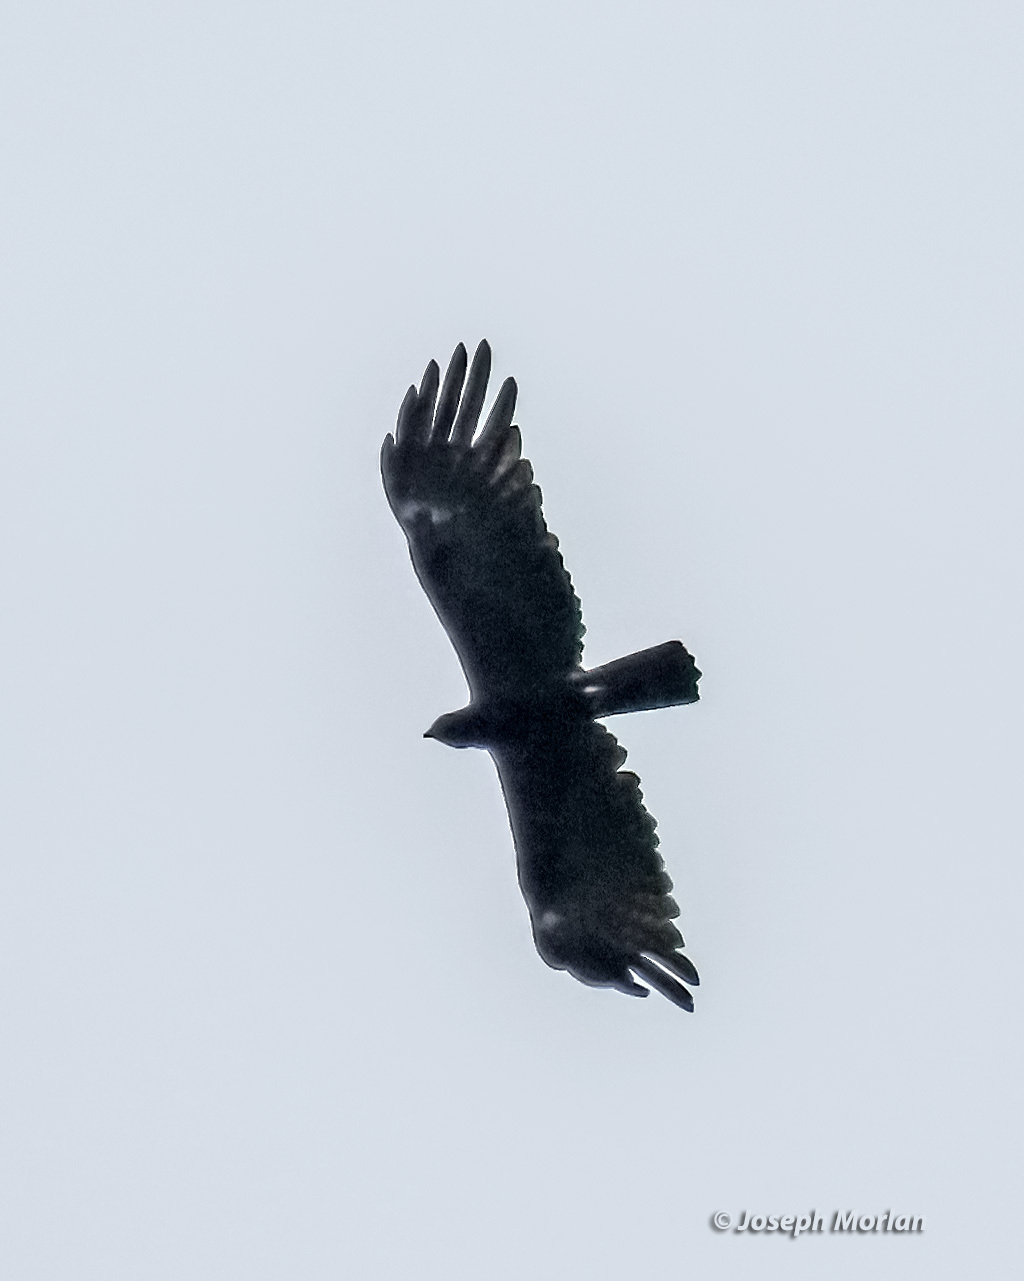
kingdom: Animalia
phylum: Chordata
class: Aves
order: Accipitriformes
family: Accipitridae
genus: Ictinaetus
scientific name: Ictinaetus malayensis
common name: Black eagle
